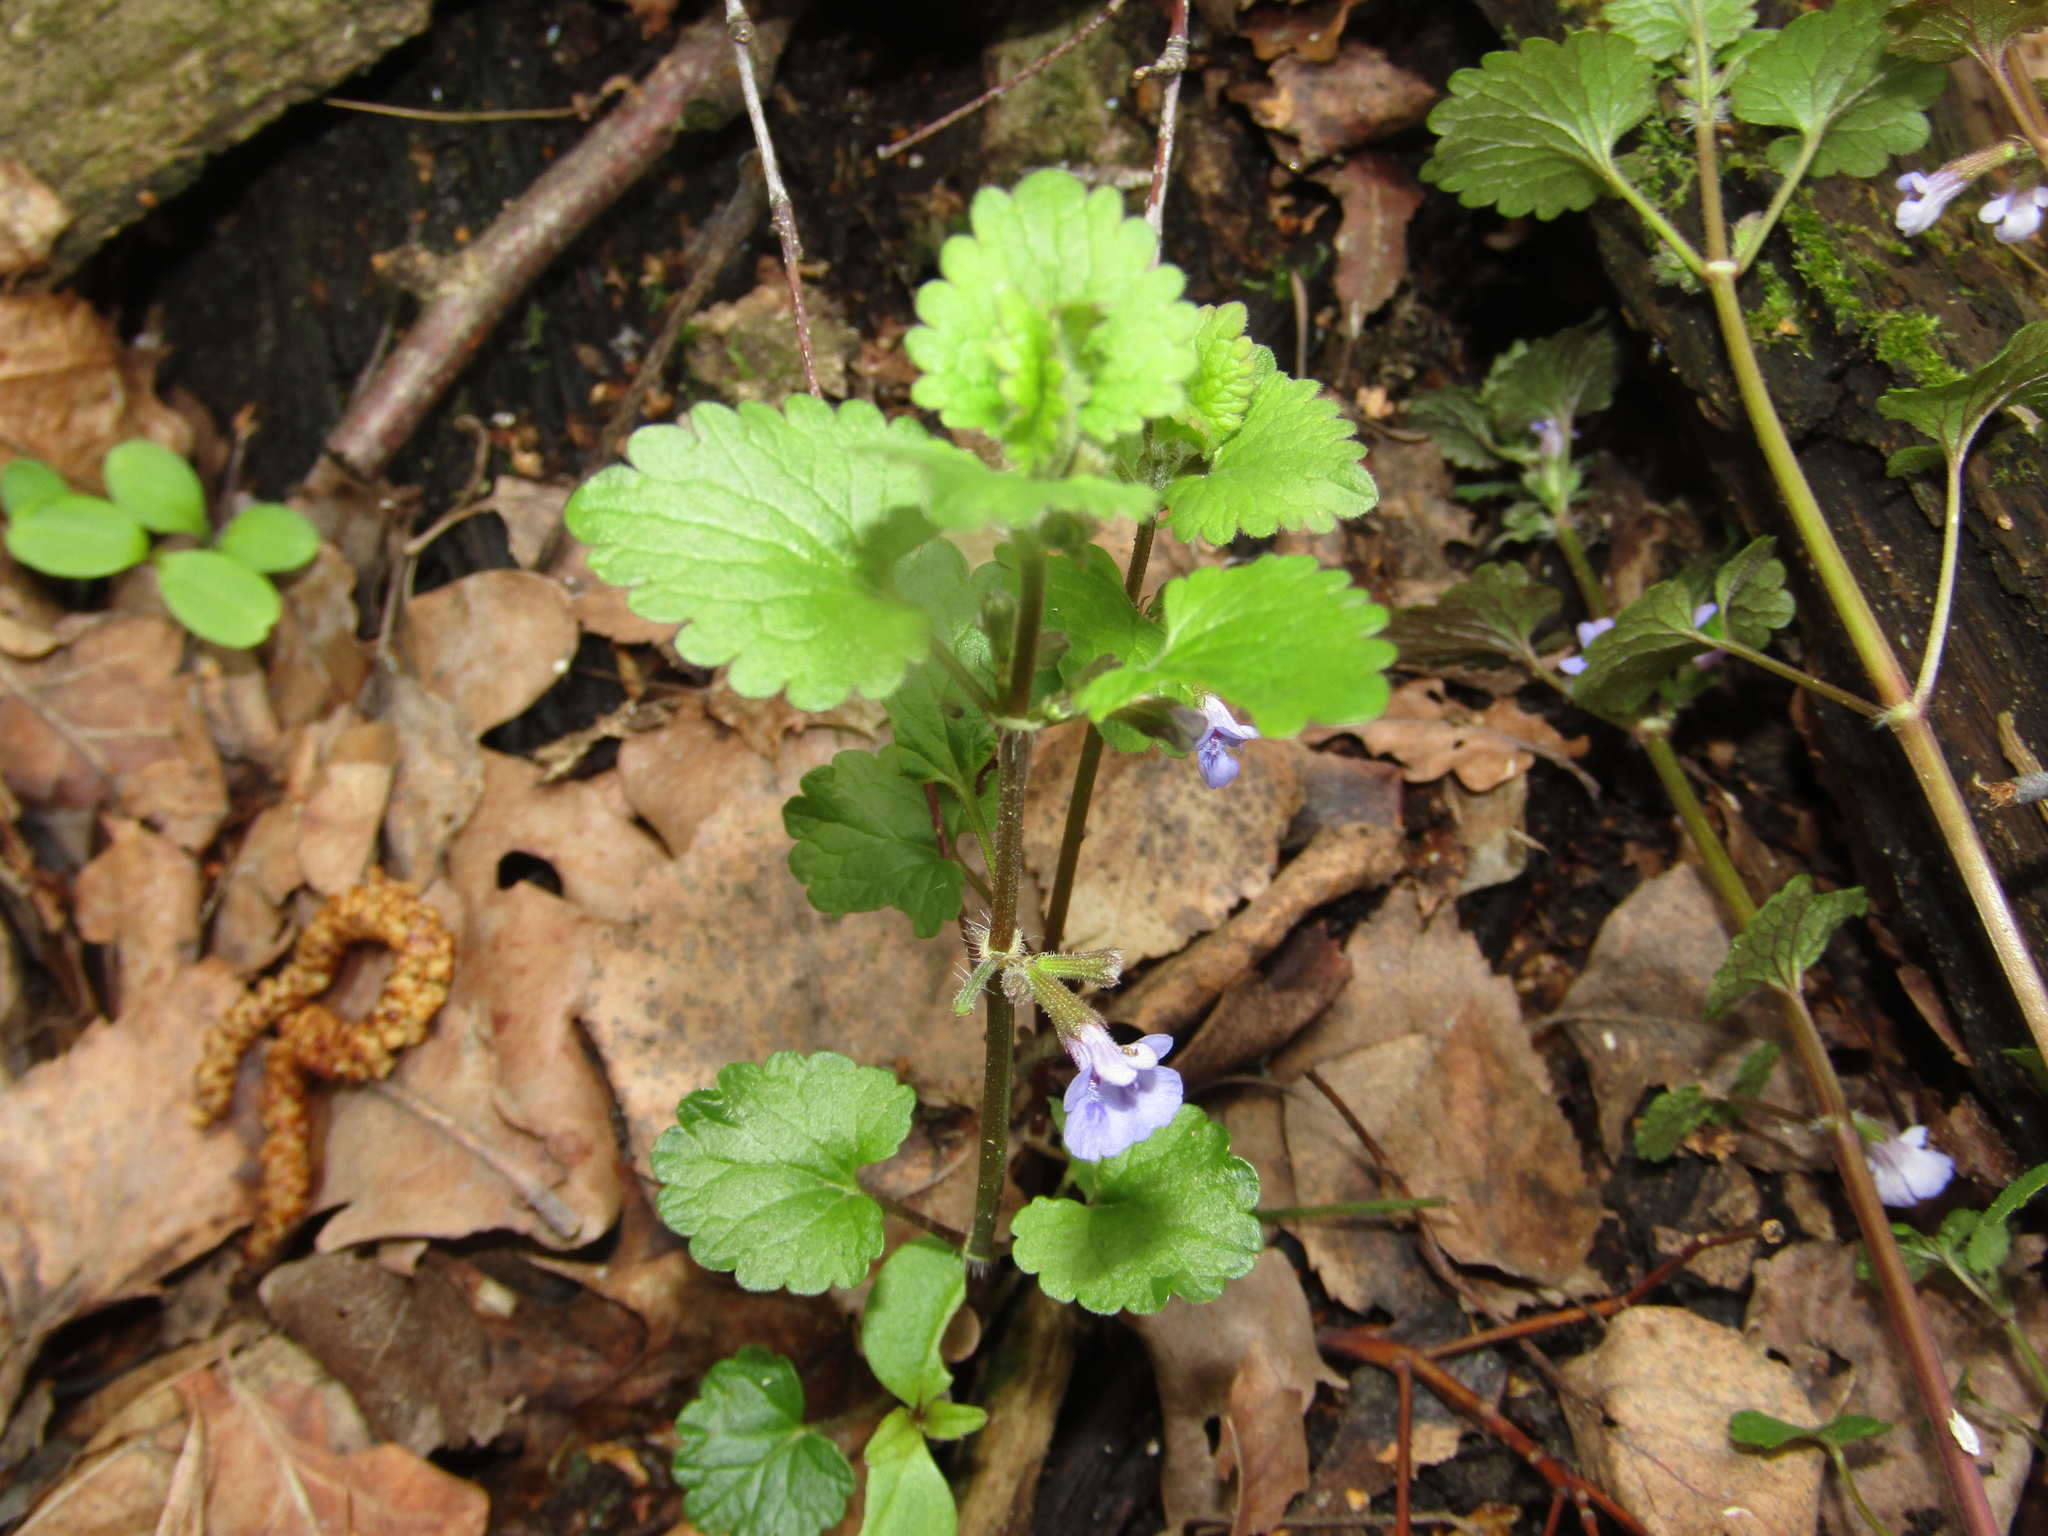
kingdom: Plantae
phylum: Tracheophyta
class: Magnoliopsida
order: Lamiales
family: Lamiaceae
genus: Glechoma
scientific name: Glechoma hederacea
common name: Ground ivy
